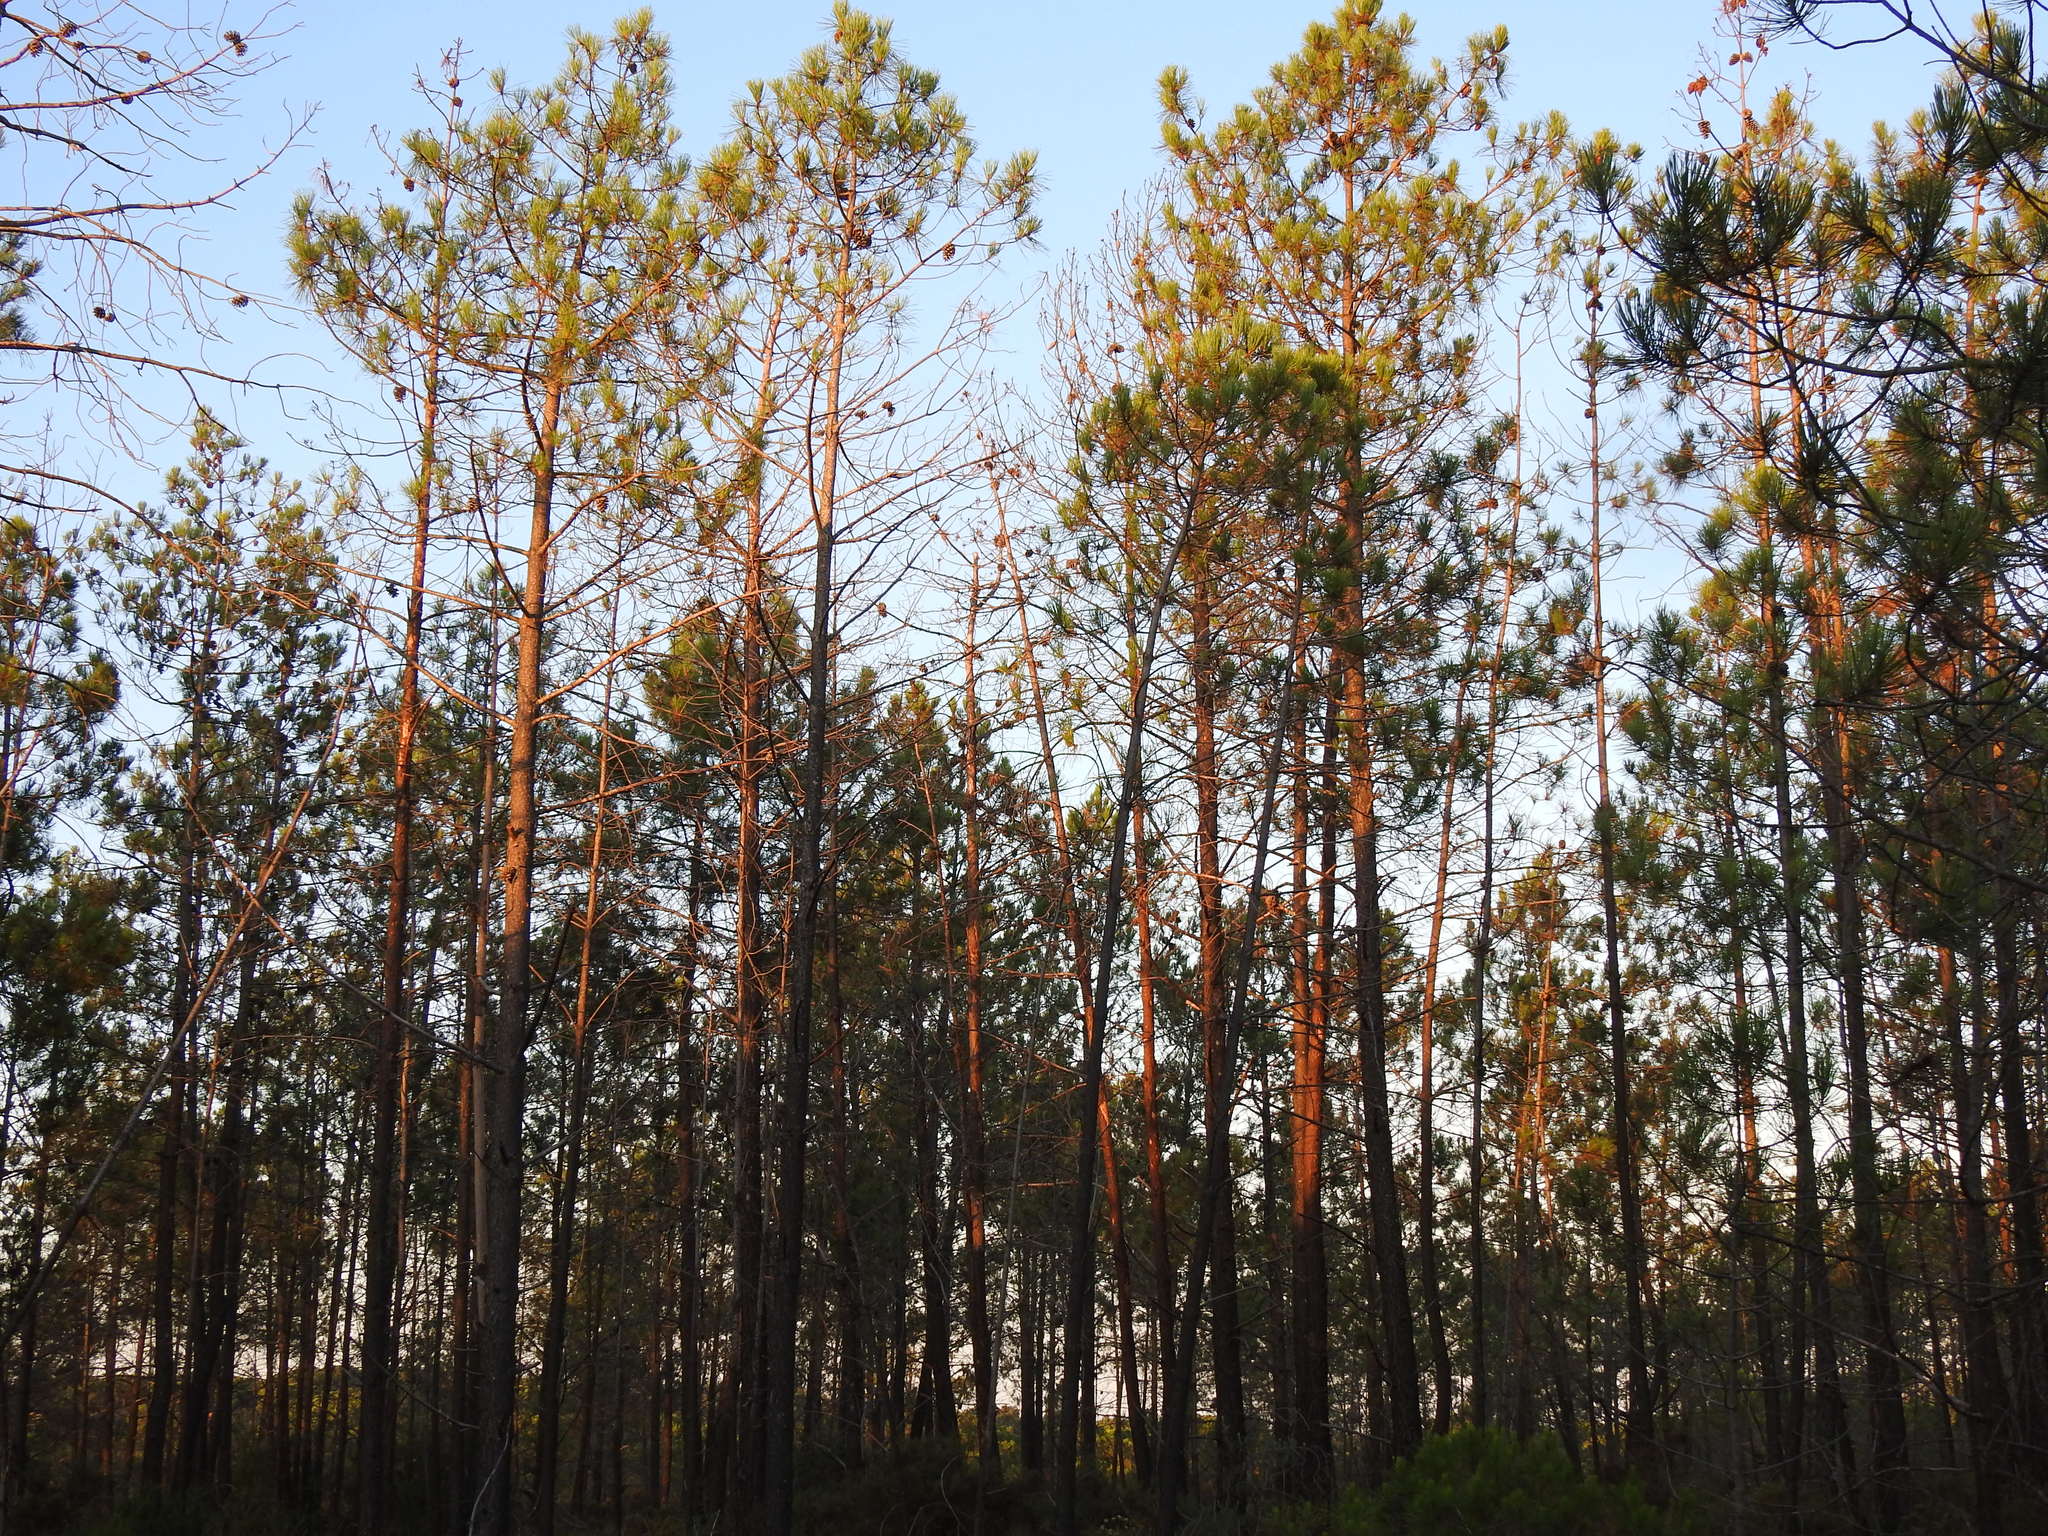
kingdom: Plantae
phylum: Tracheophyta
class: Pinopsida
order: Pinales
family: Pinaceae
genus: Pinus
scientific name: Pinus pinaster
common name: Maritime pine
